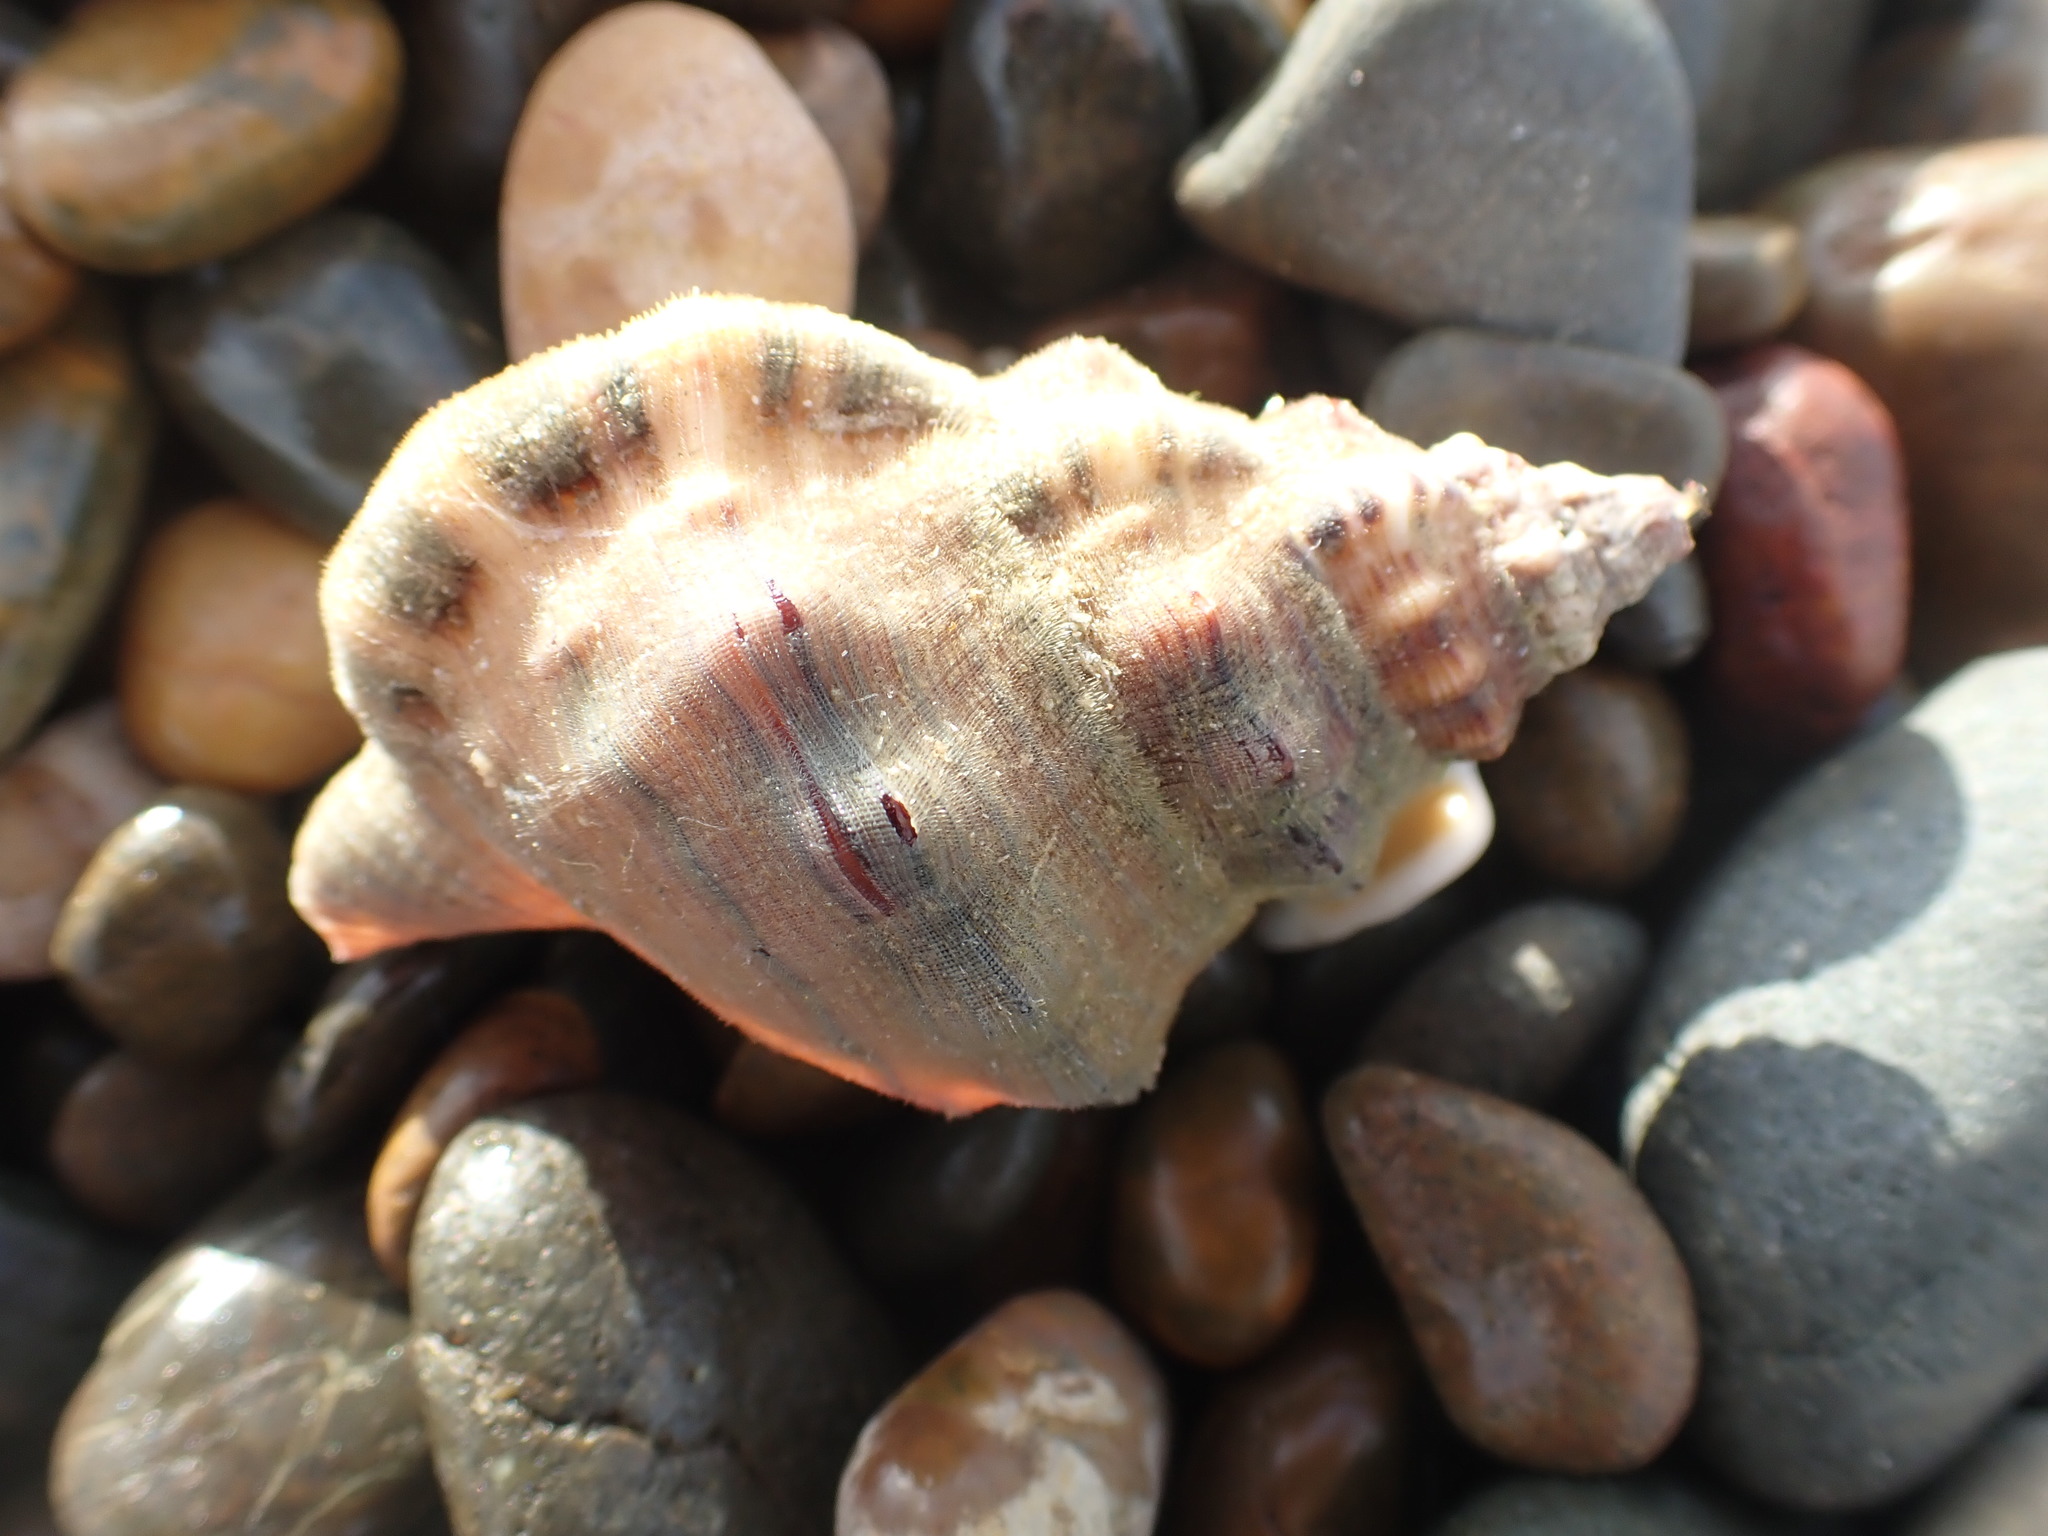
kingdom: Animalia
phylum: Mollusca
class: Gastropoda
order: Littorinimorpha
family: Ranellidae
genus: Ranella
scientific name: Ranella australasia
